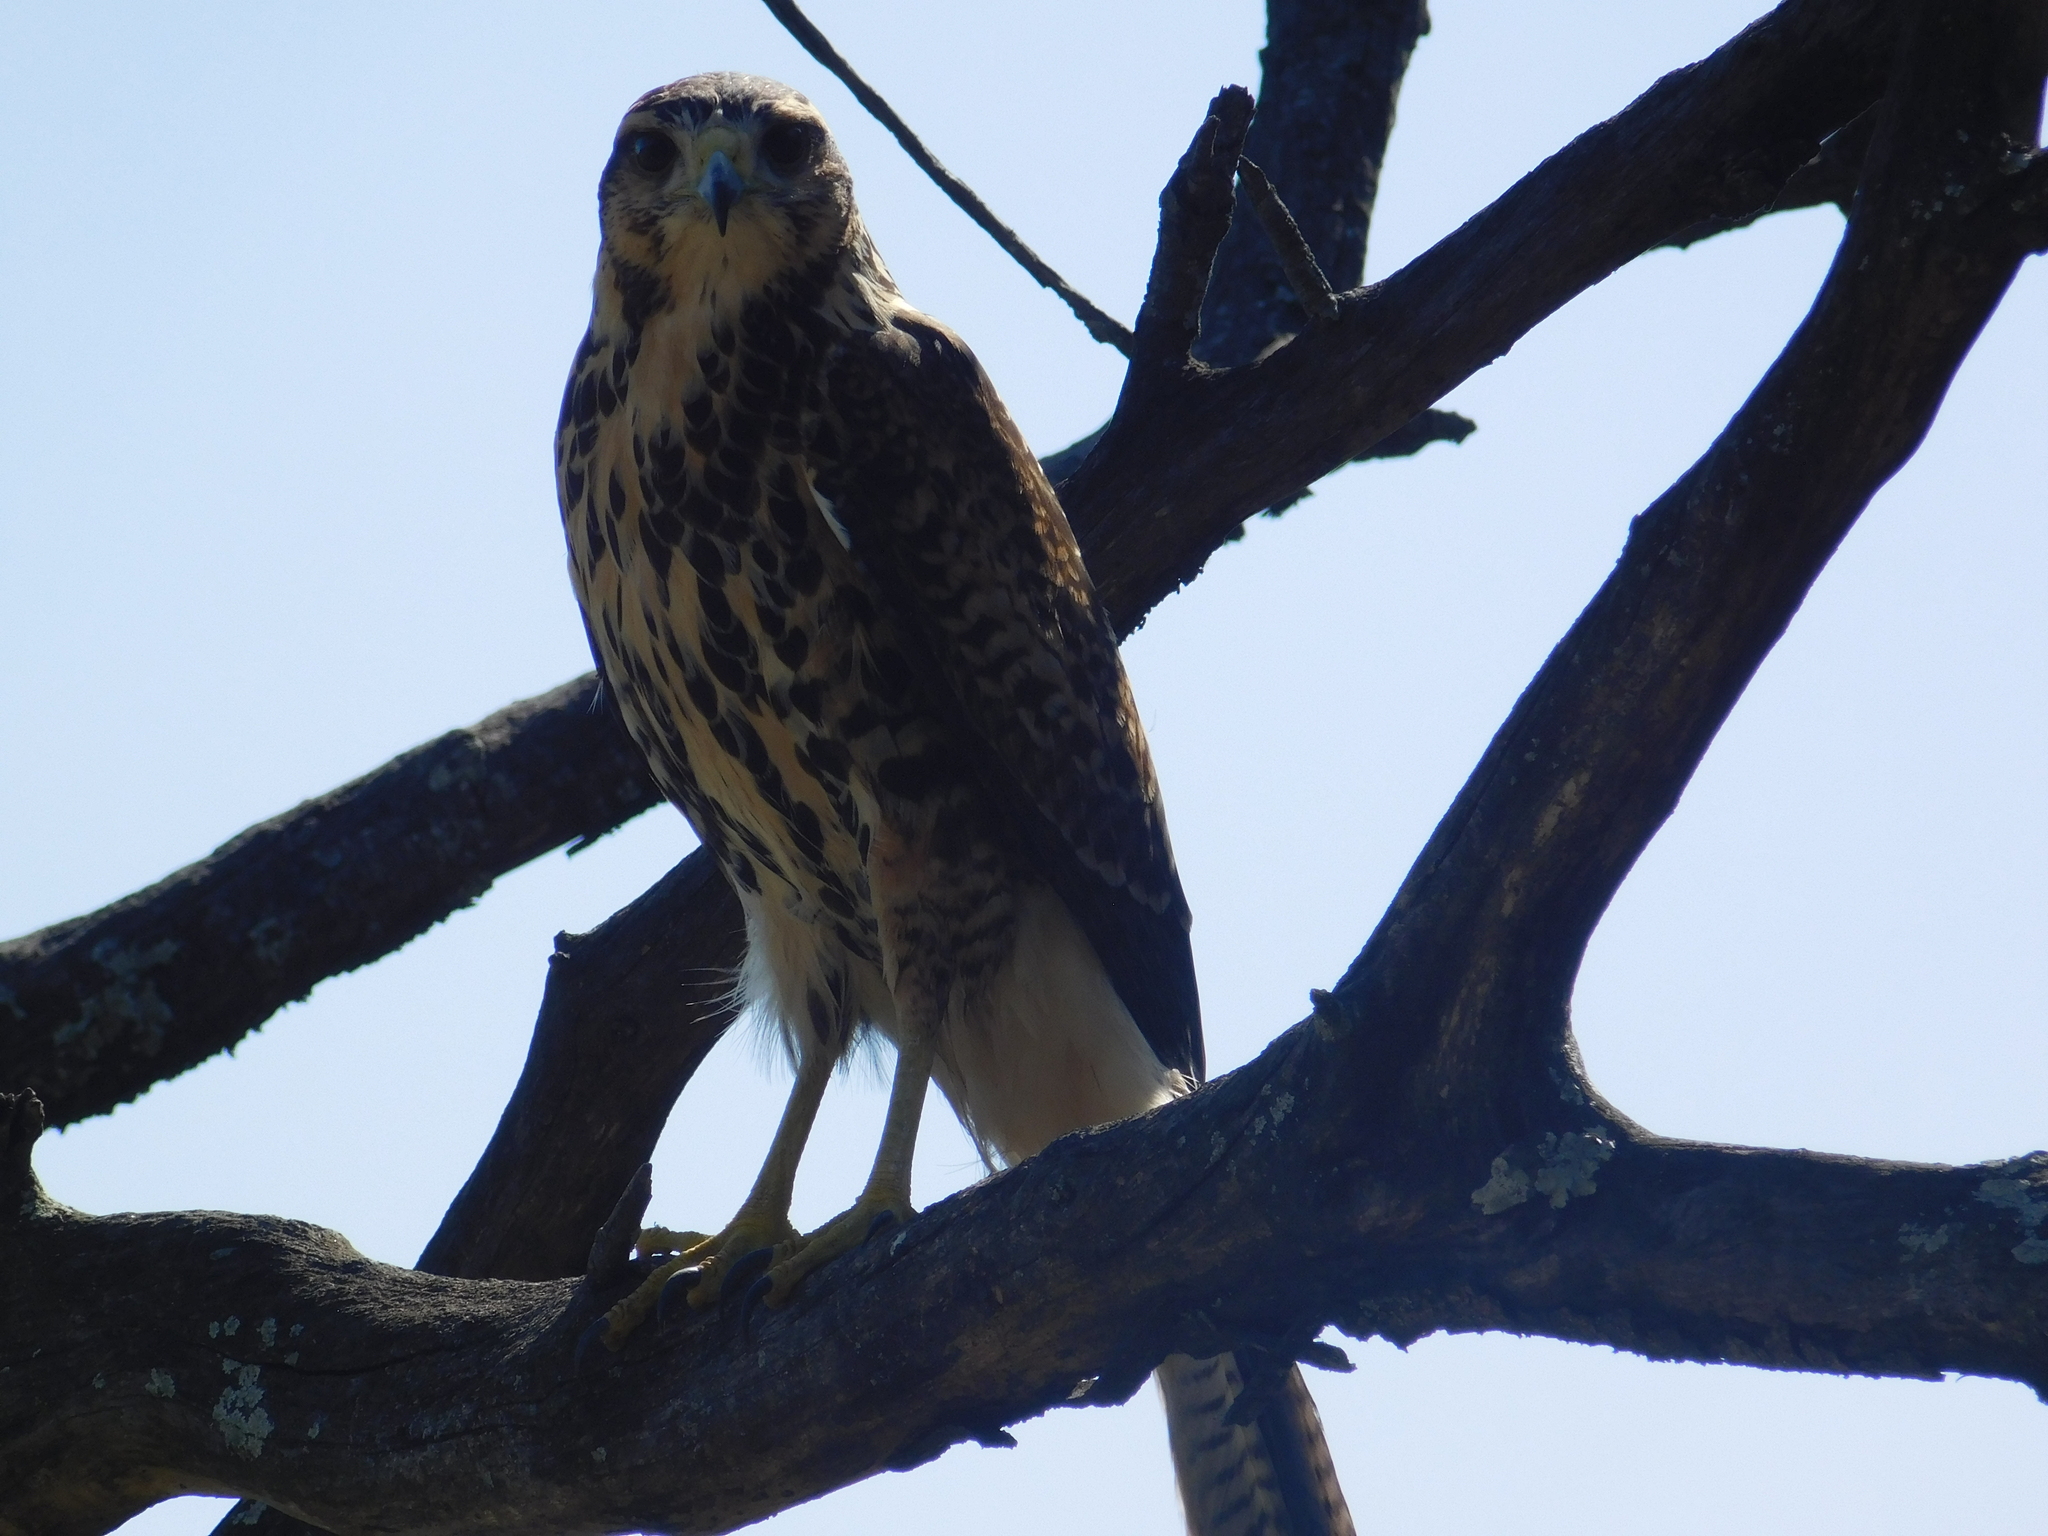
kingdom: Animalia
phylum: Chordata
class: Aves
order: Accipitriformes
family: Accipitridae
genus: Parabuteo
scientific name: Parabuteo unicinctus
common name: Harris's hawk
